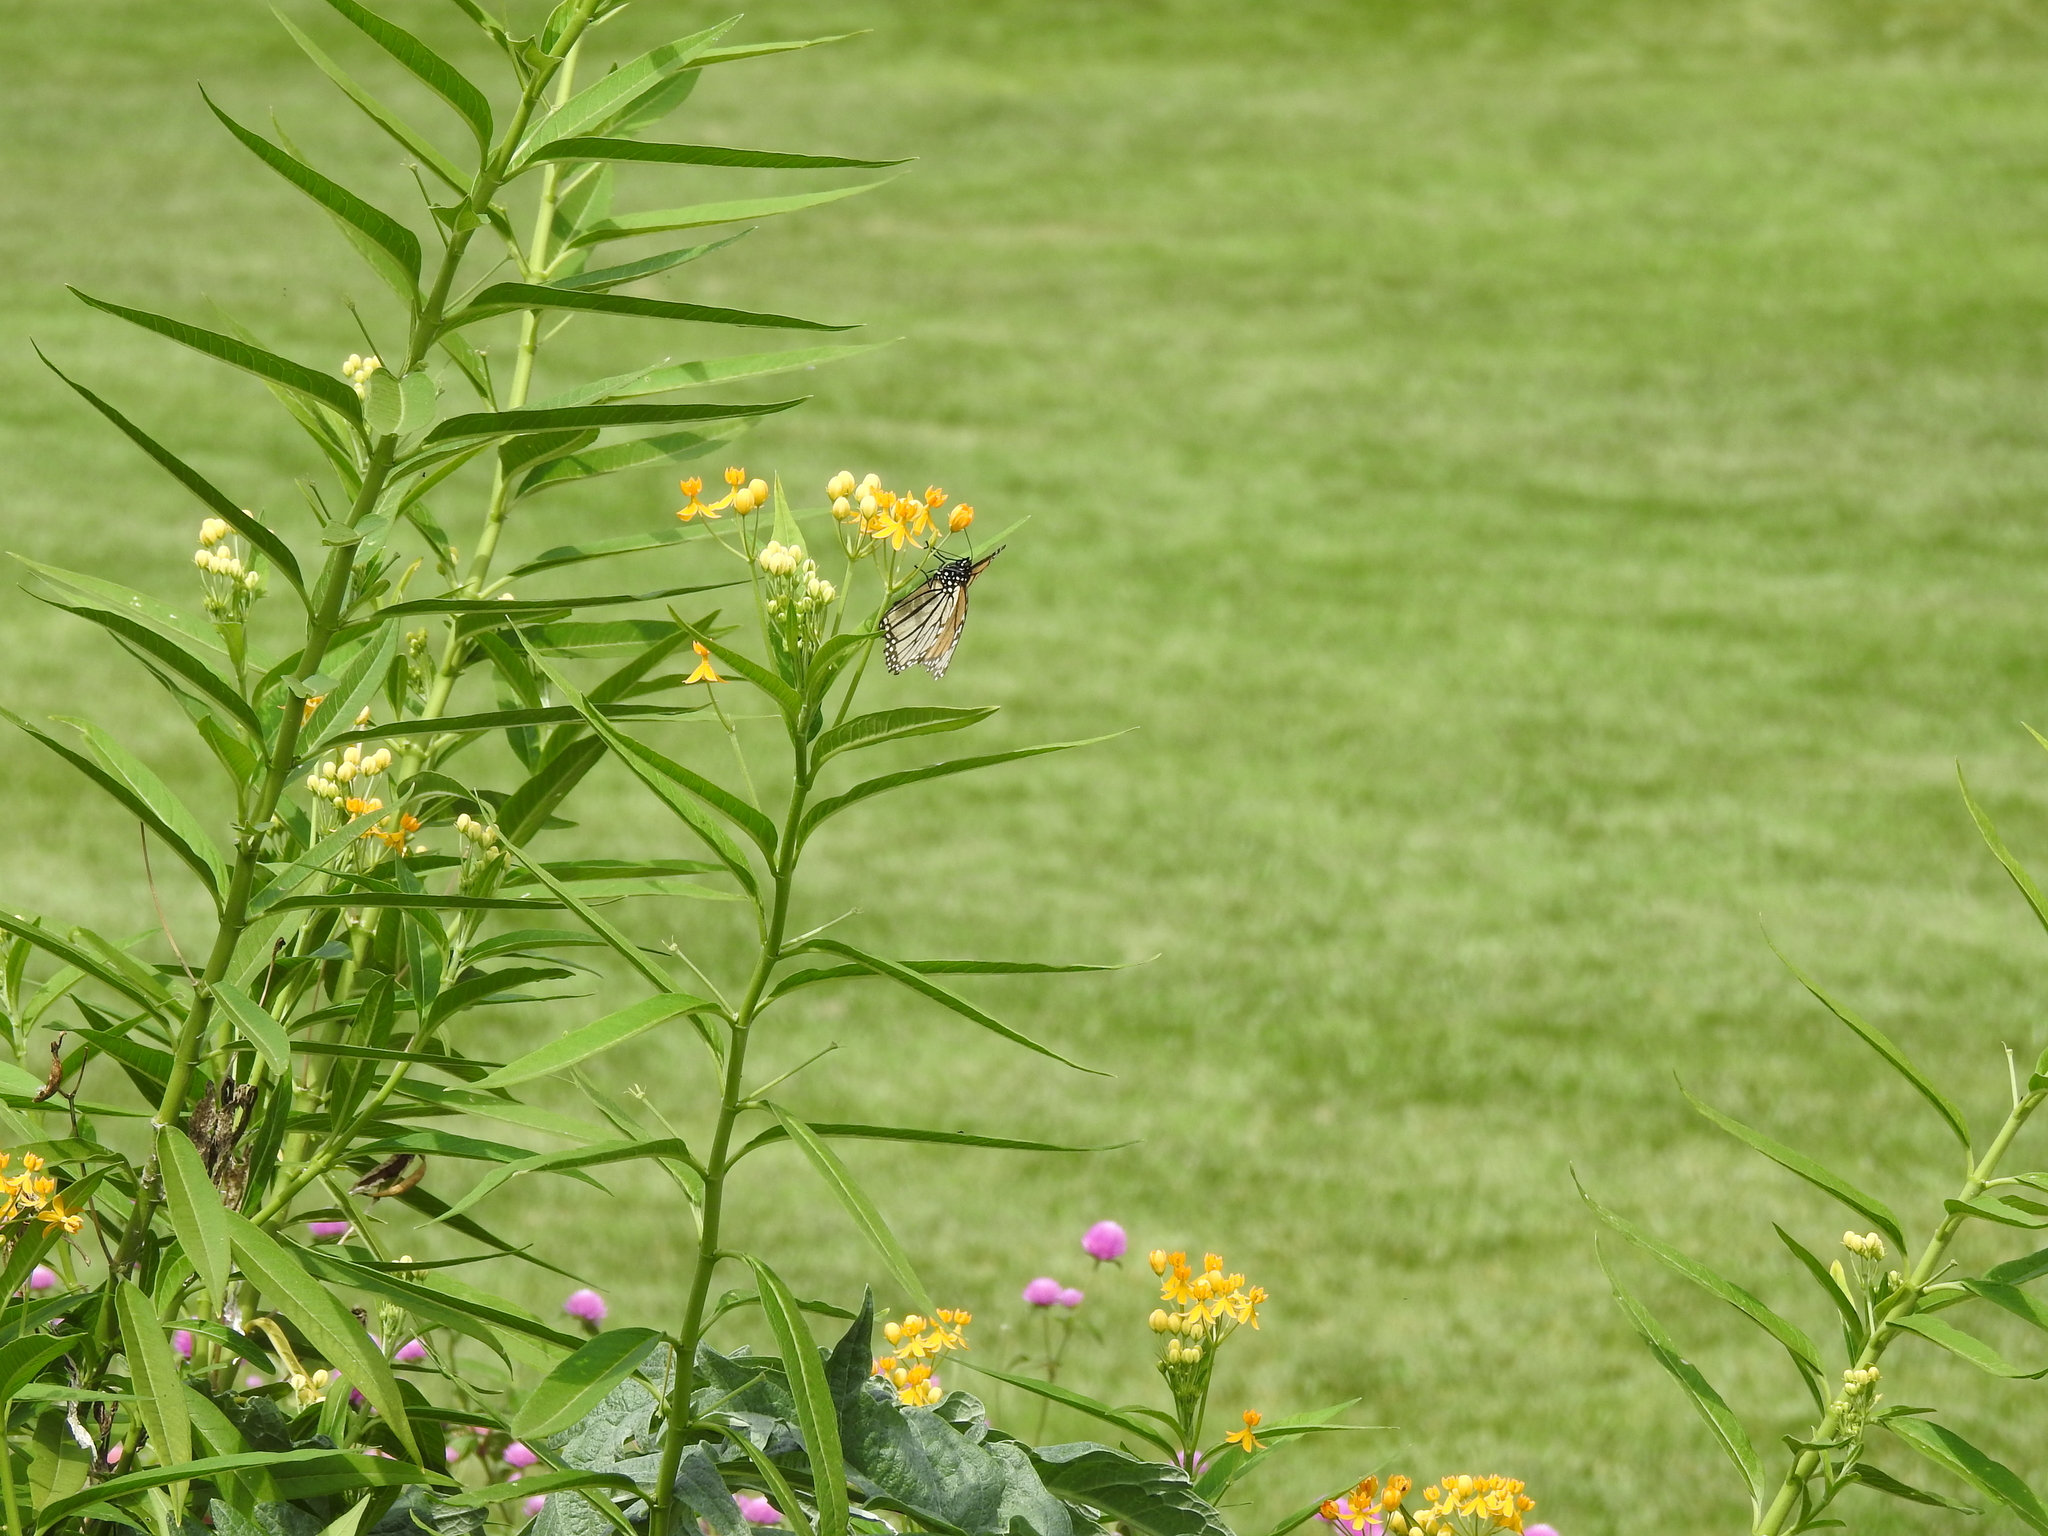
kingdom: Animalia
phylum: Arthropoda
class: Insecta
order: Lepidoptera
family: Nymphalidae
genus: Danaus
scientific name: Danaus plexippus
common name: Monarch
